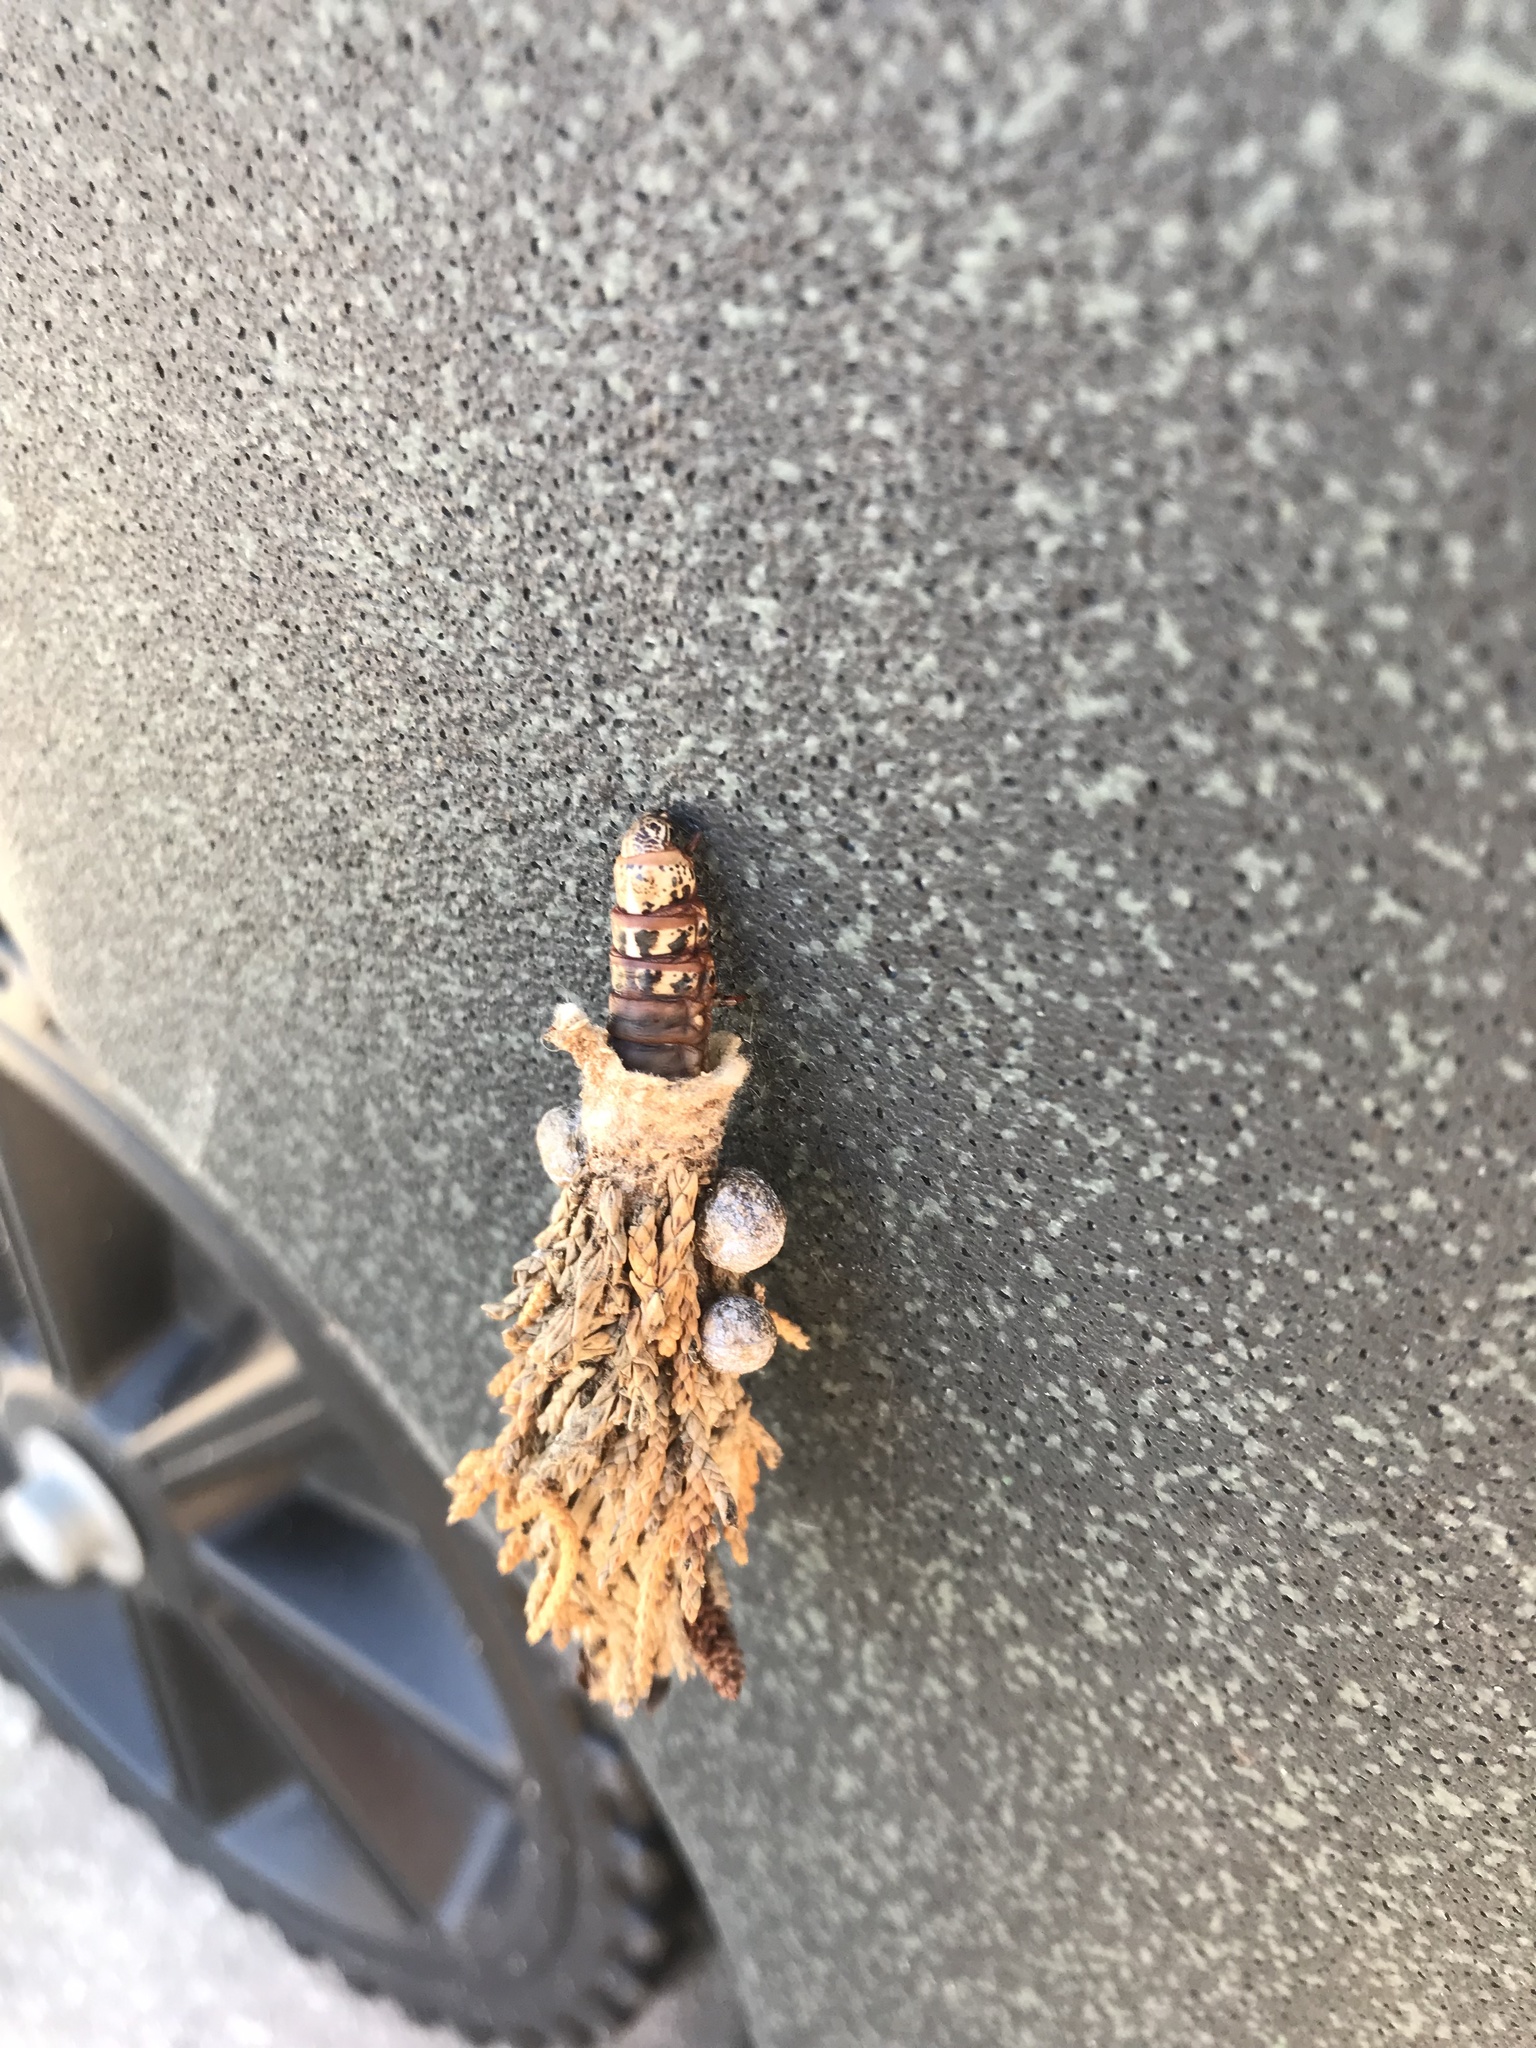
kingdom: Animalia
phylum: Arthropoda
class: Insecta
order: Lepidoptera
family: Psychidae
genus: Thyridopteryx
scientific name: Thyridopteryx ephemeraeformis
